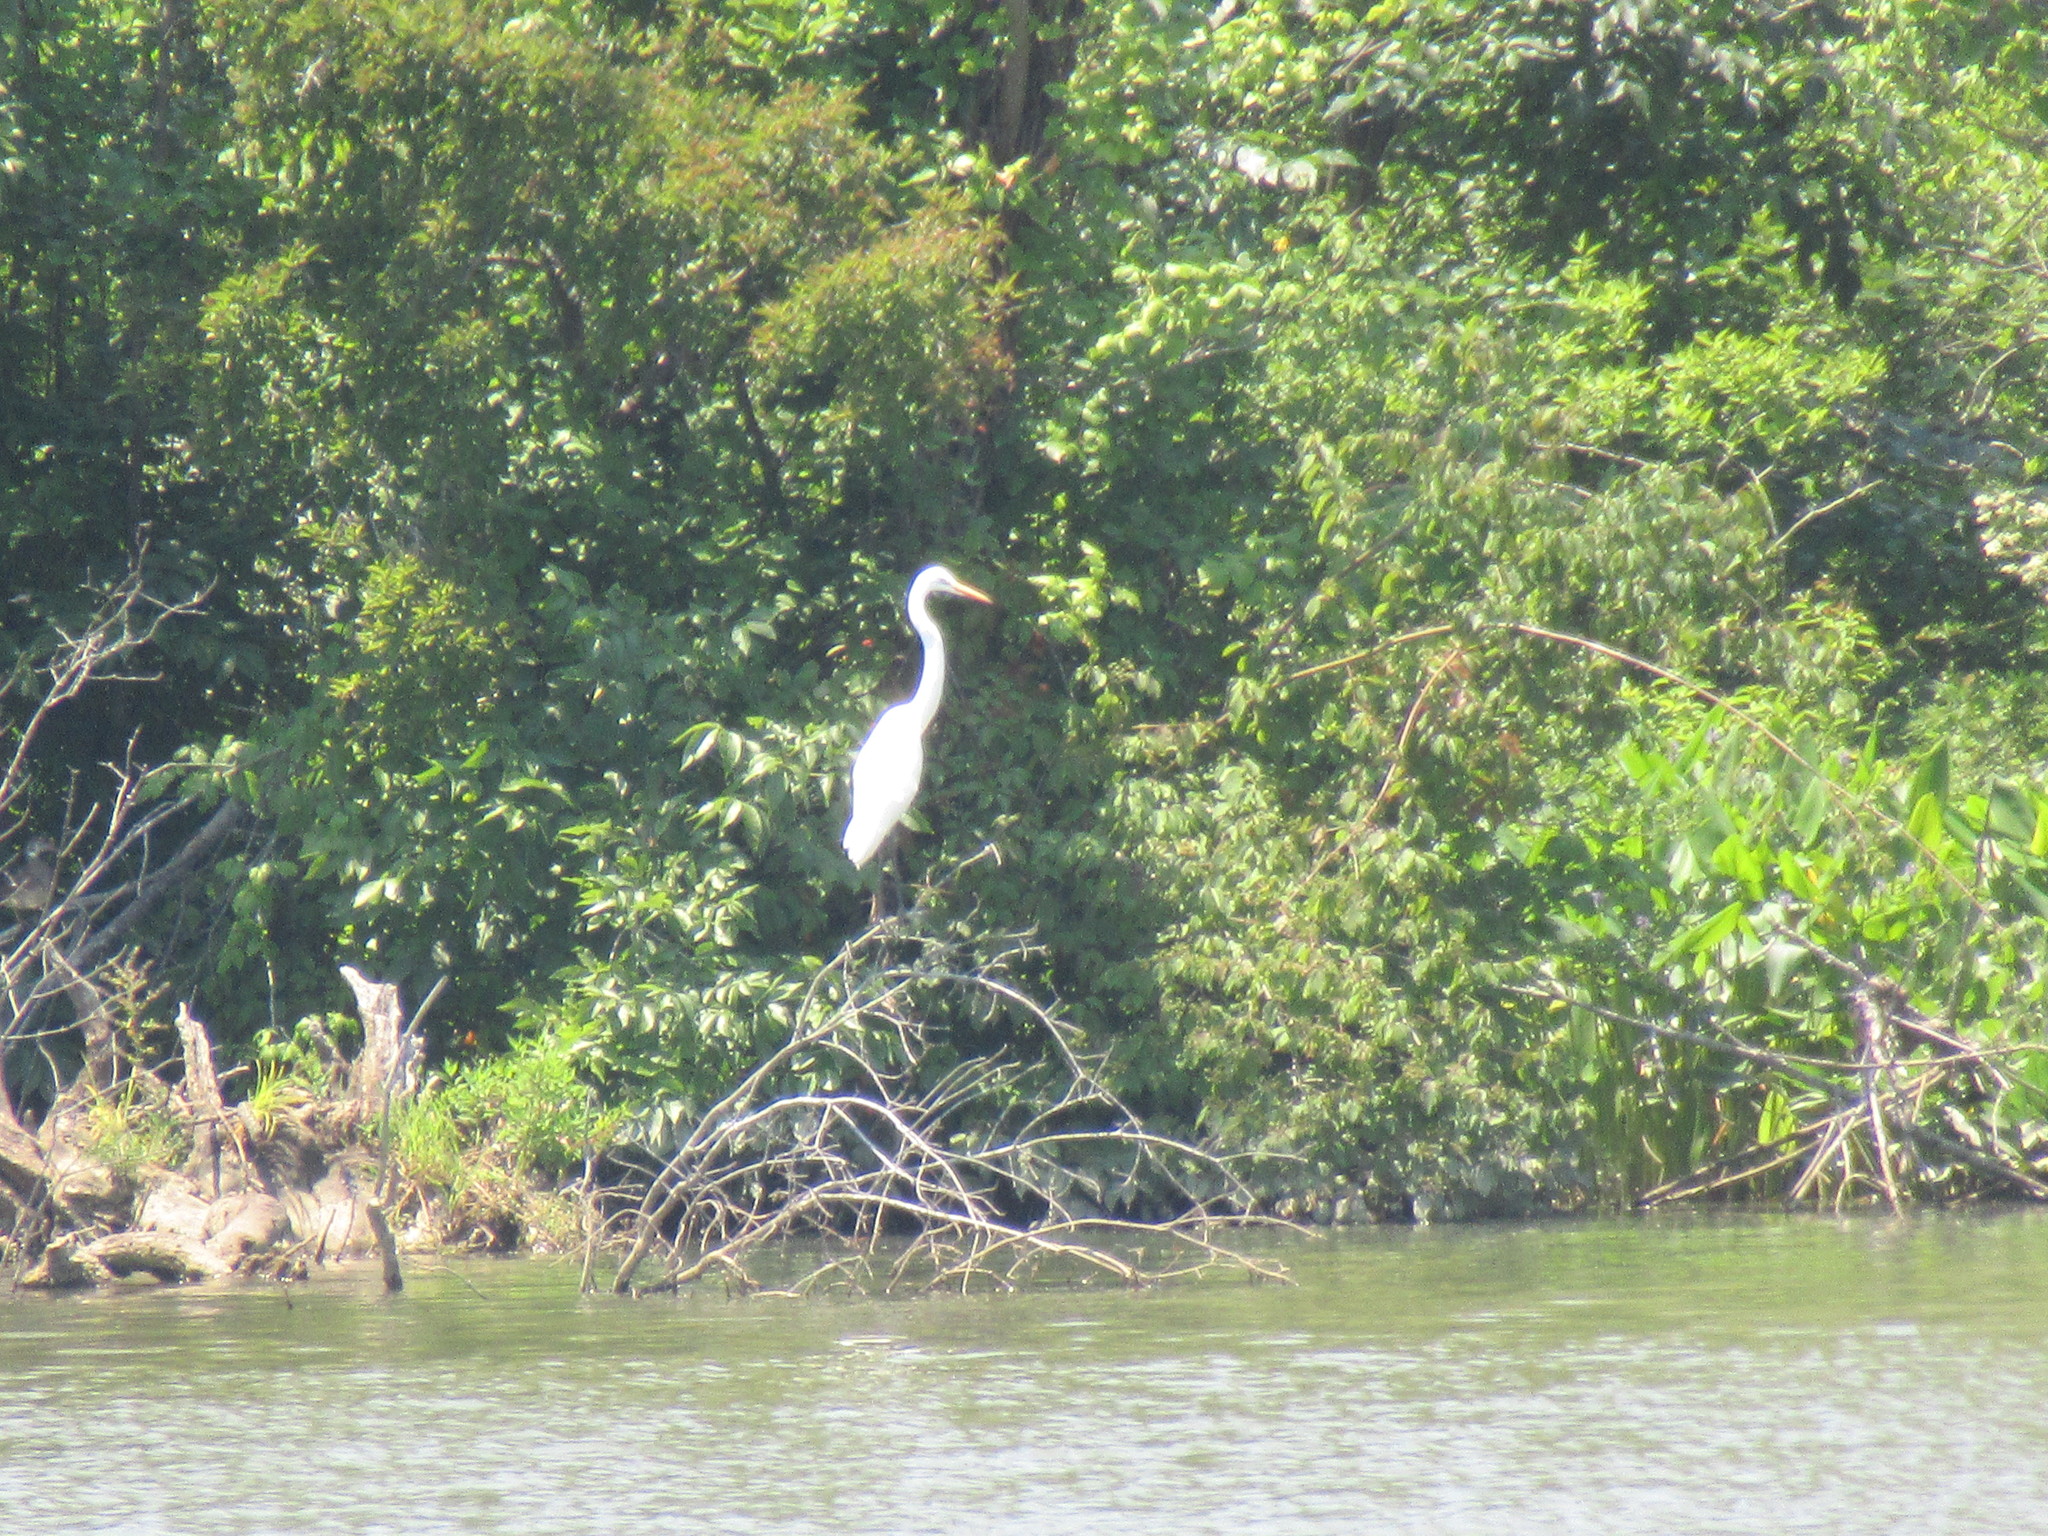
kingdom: Animalia
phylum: Chordata
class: Aves
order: Pelecaniformes
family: Ardeidae
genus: Ardea
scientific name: Ardea alba
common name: Great egret
